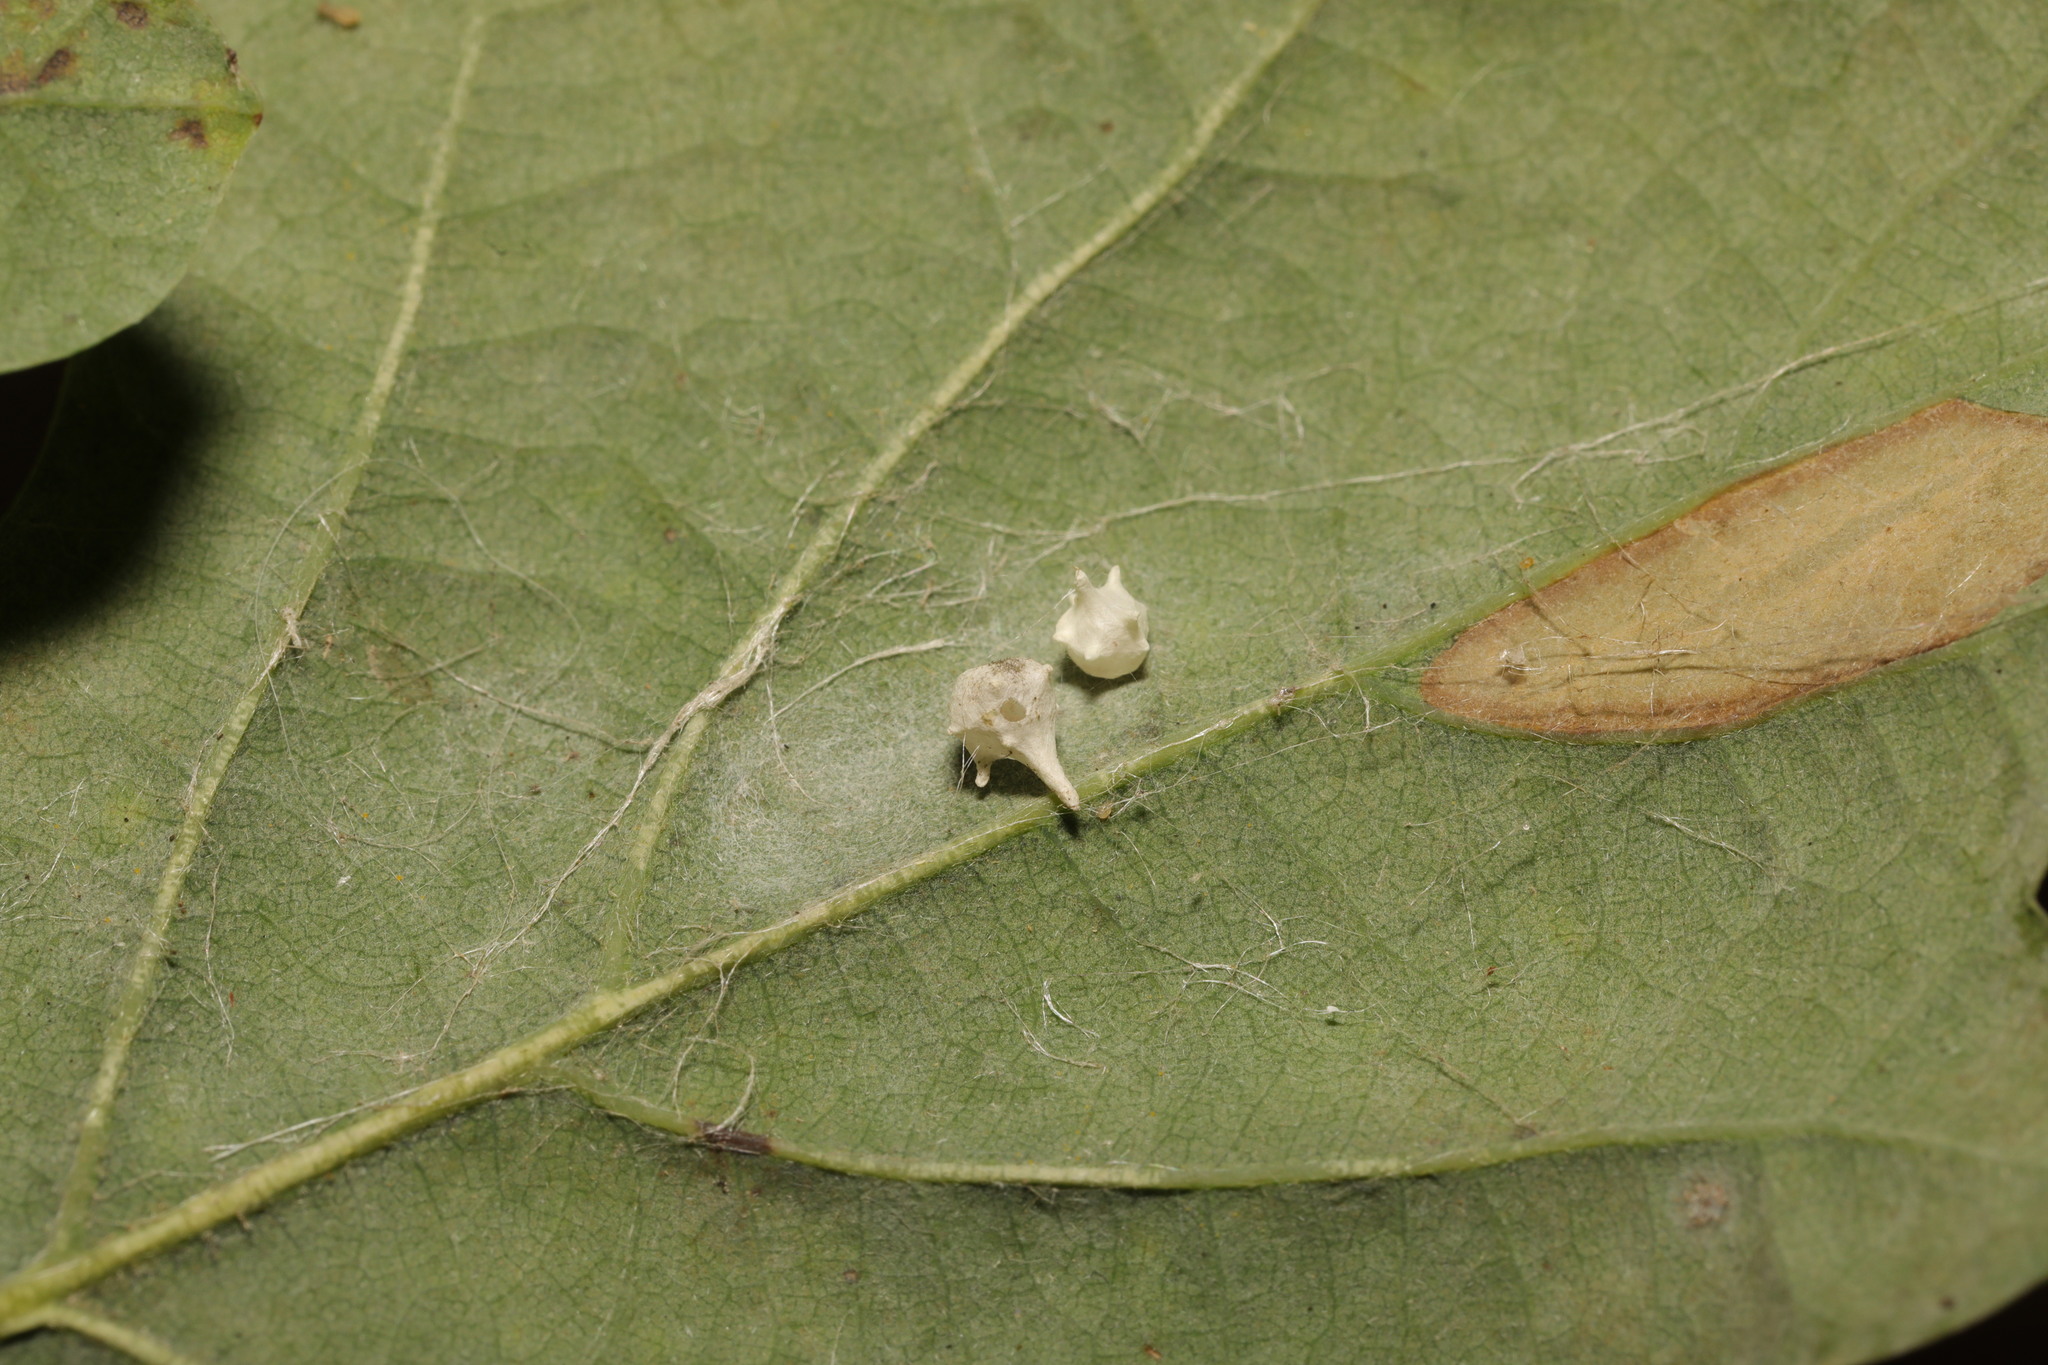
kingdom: Animalia
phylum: Arthropoda
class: Arachnida
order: Araneae
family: Theridiidae
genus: Paidiscura
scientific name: Paidiscura pallens
